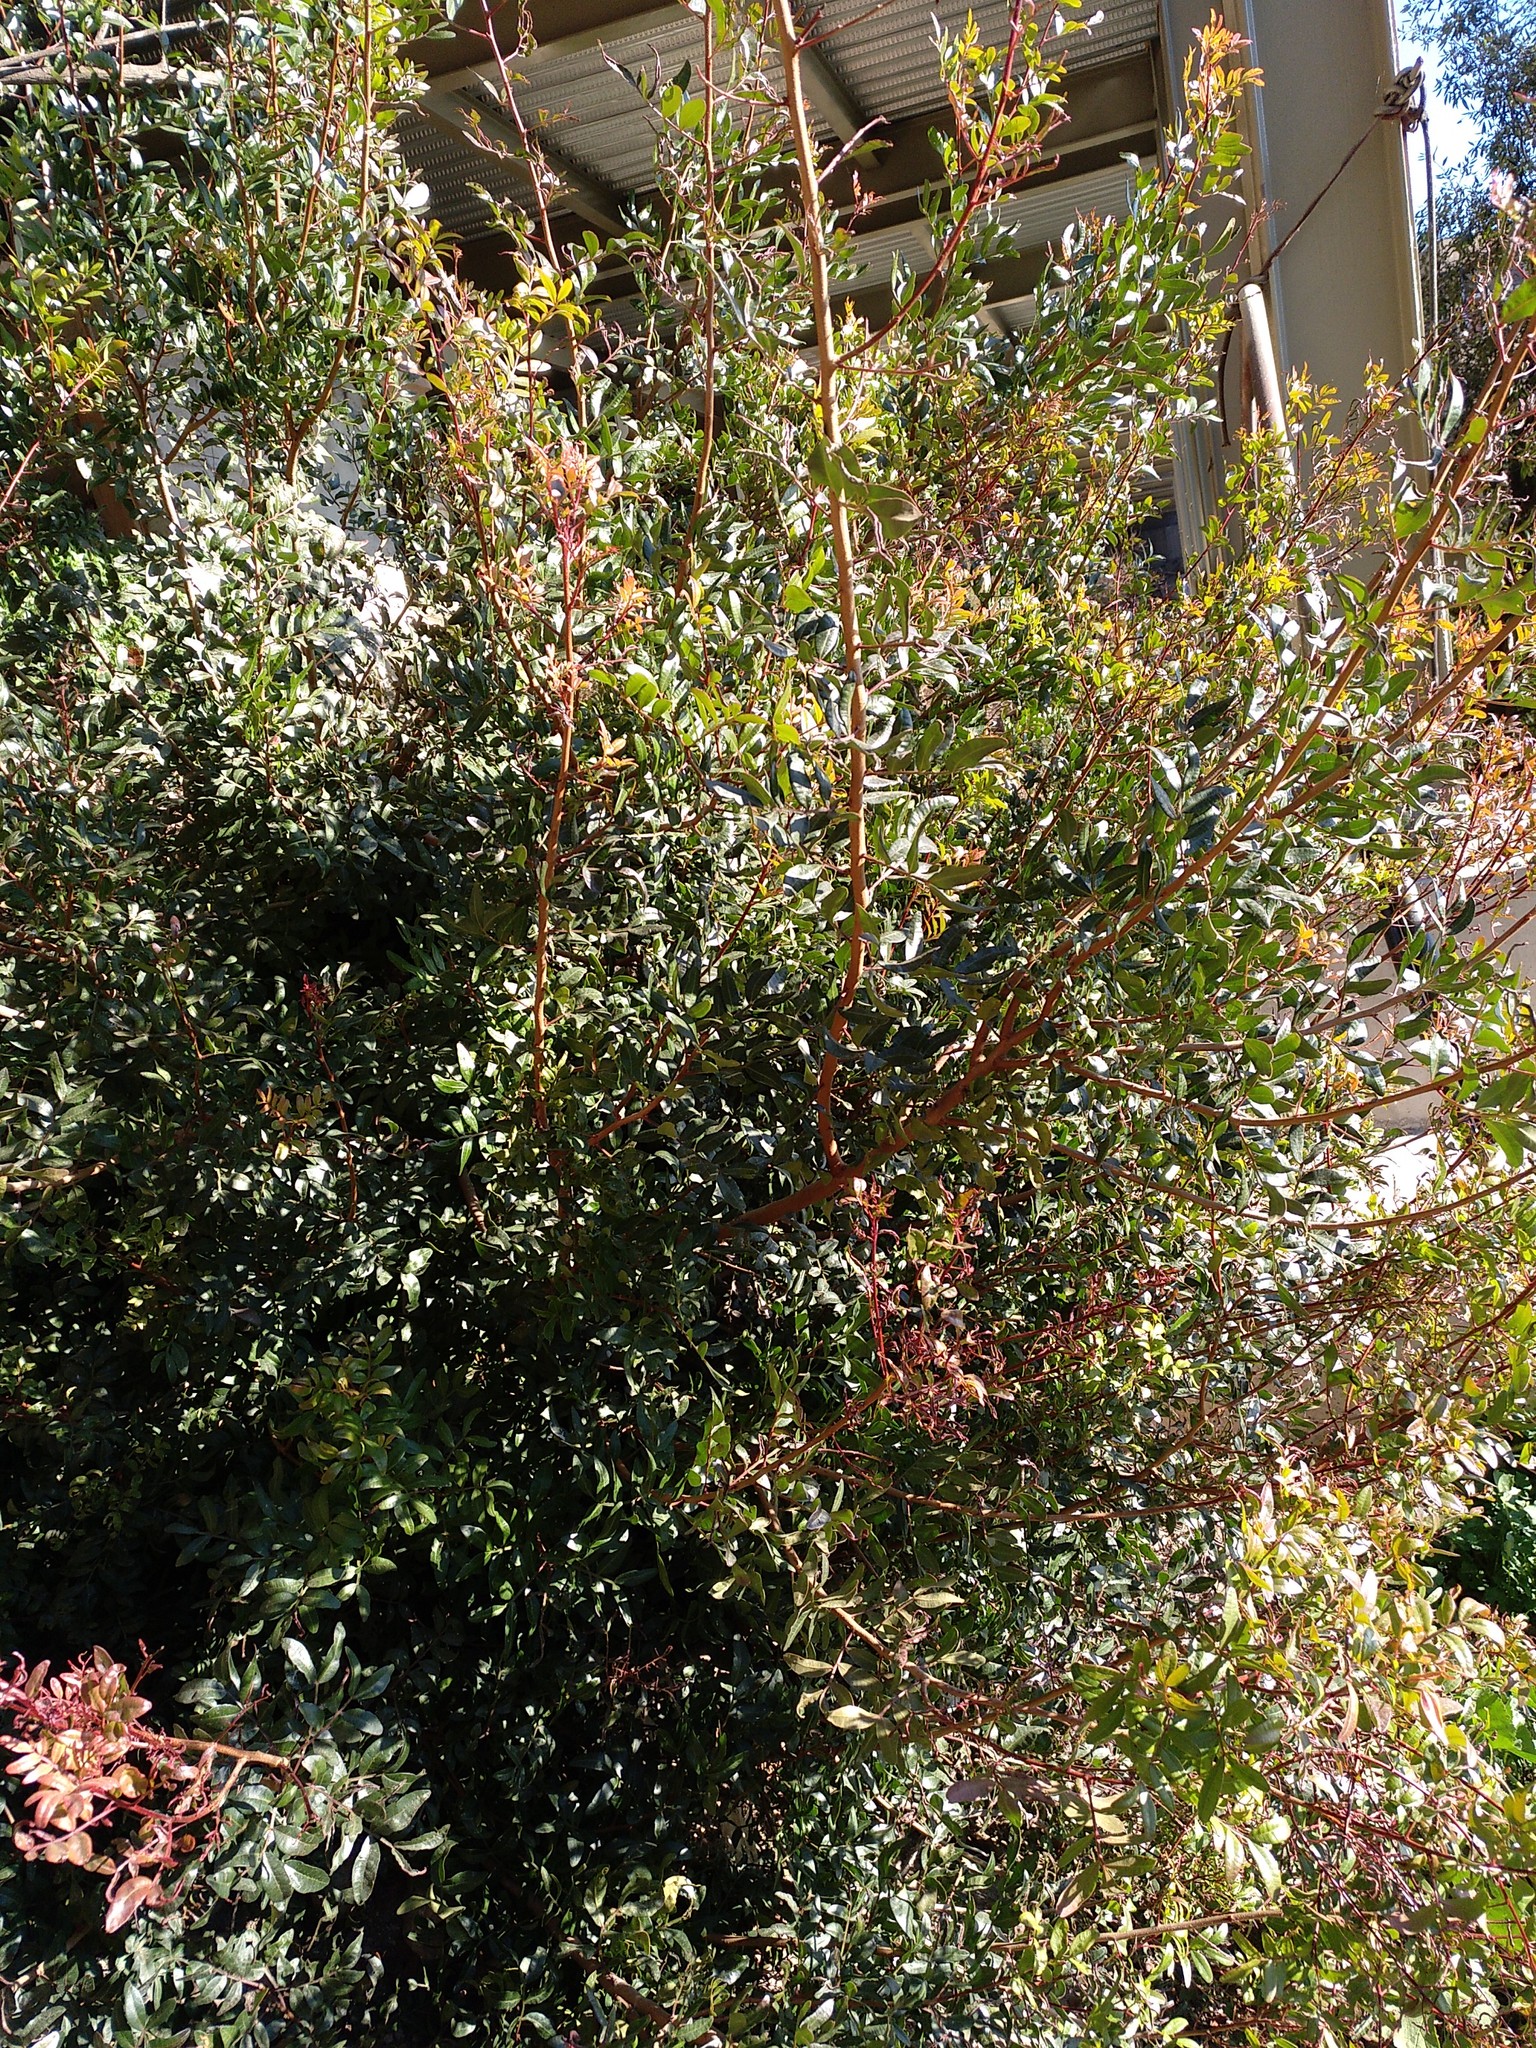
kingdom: Plantae
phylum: Tracheophyta
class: Magnoliopsida
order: Sapindales
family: Anacardiaceae
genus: Pistacia
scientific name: Pistacia lentiscus
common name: Lentisk
